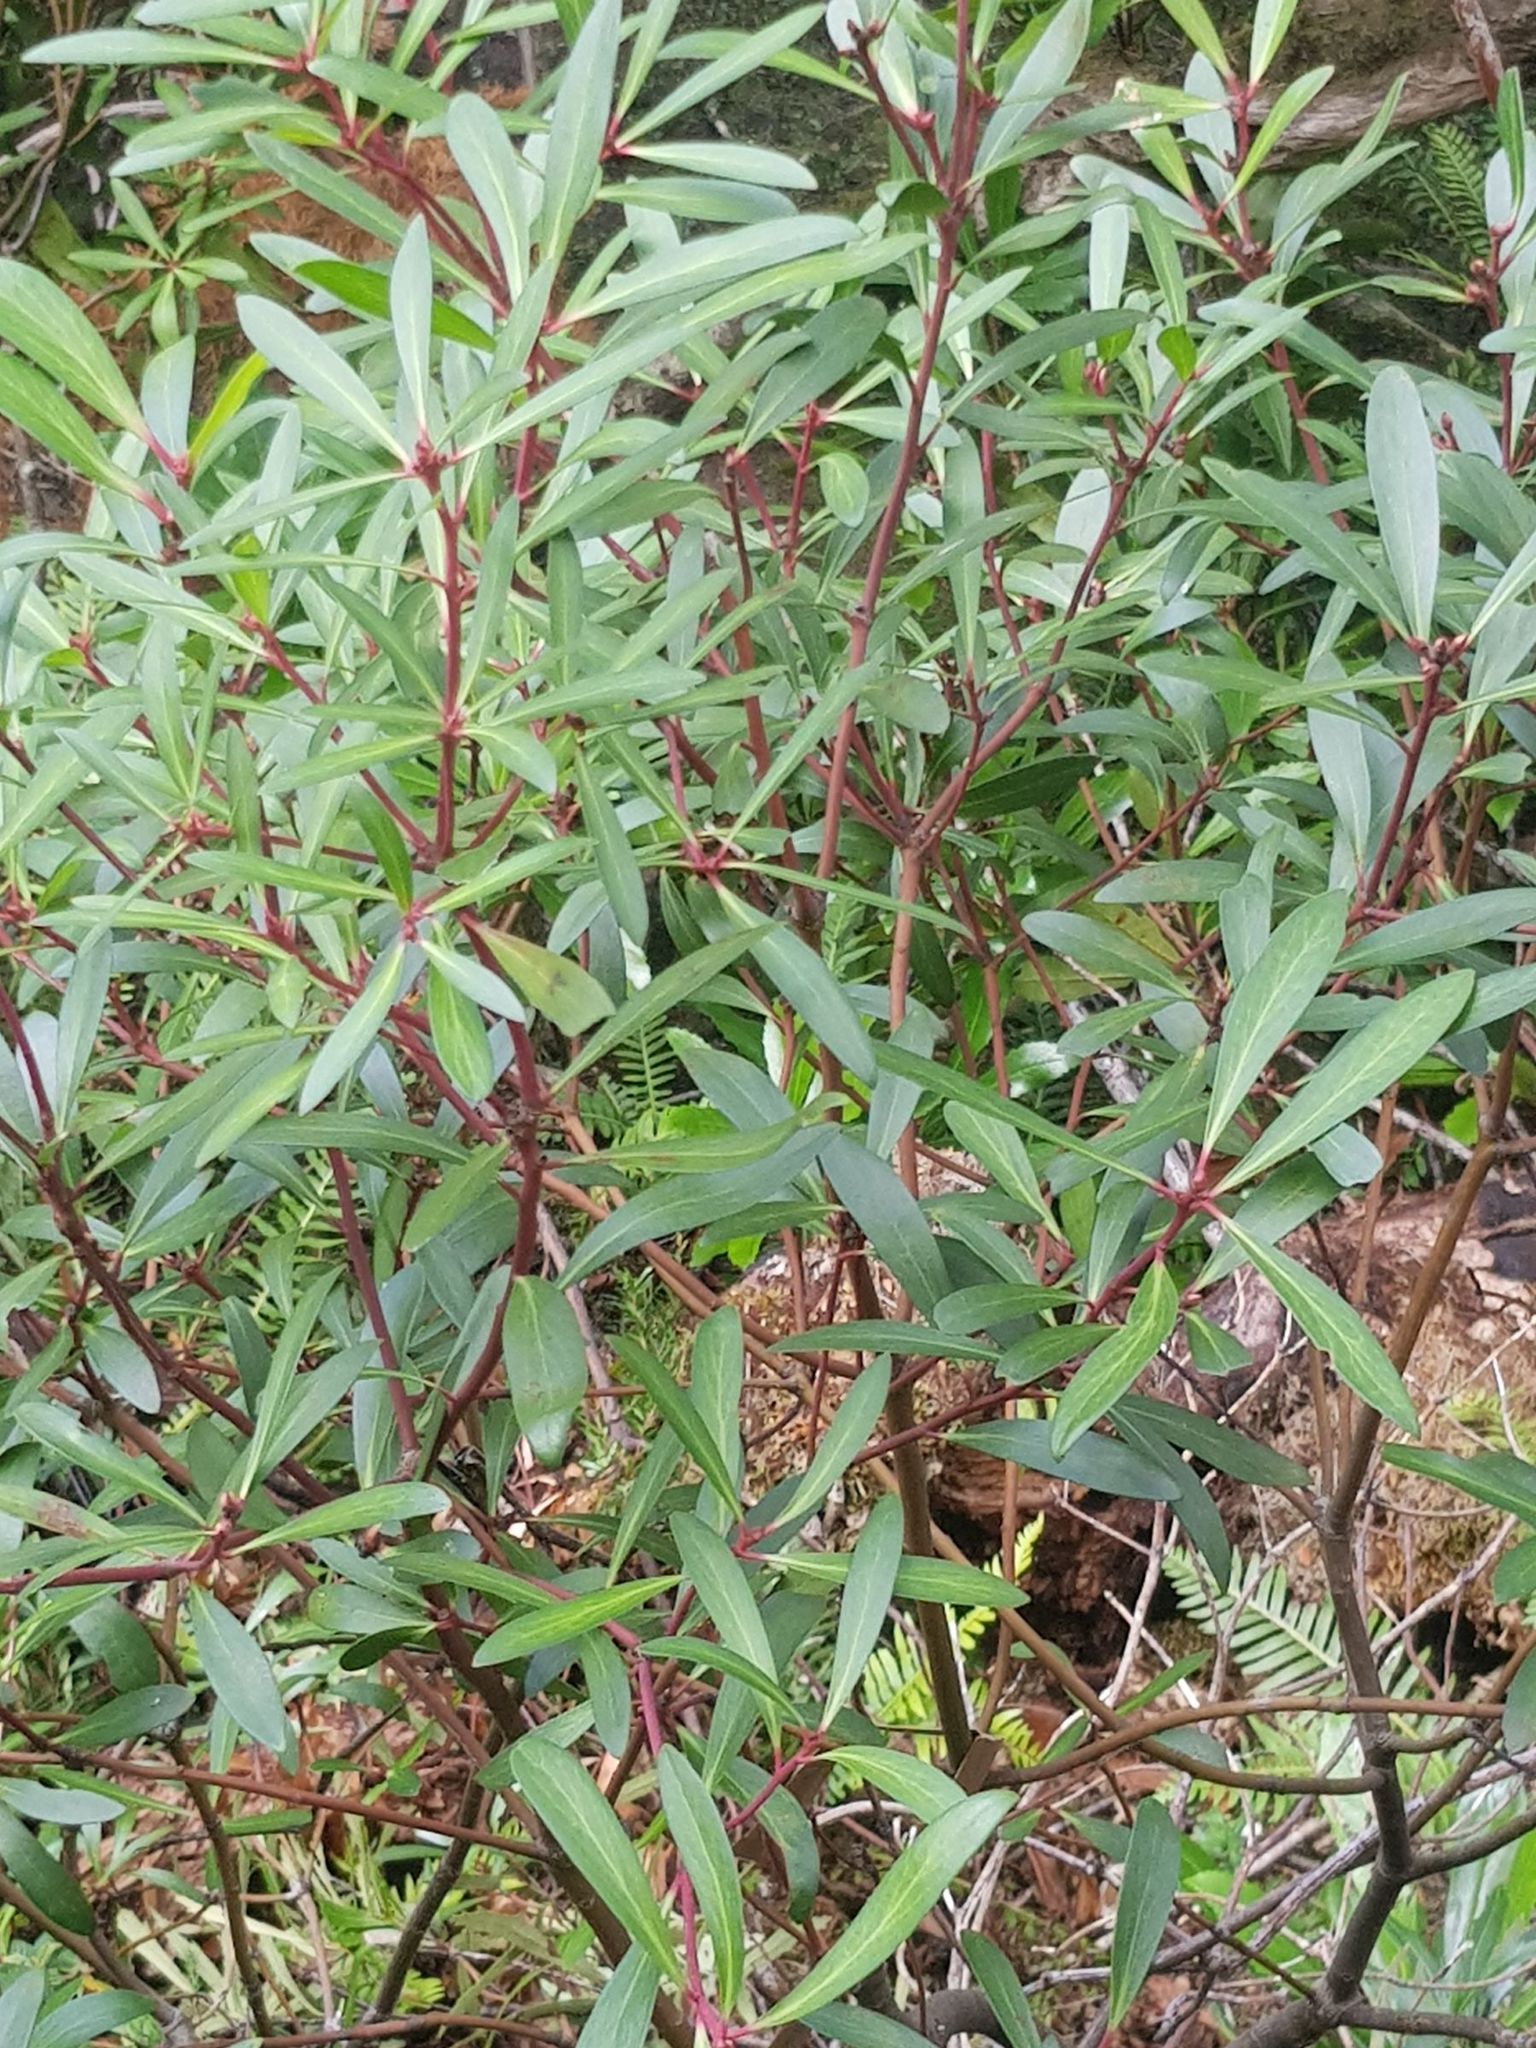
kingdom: Plantae
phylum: Tracheophyta
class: Magnoliopsida
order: Canellales
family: Winteraceae
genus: Drimys
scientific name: Drimys aromatica
